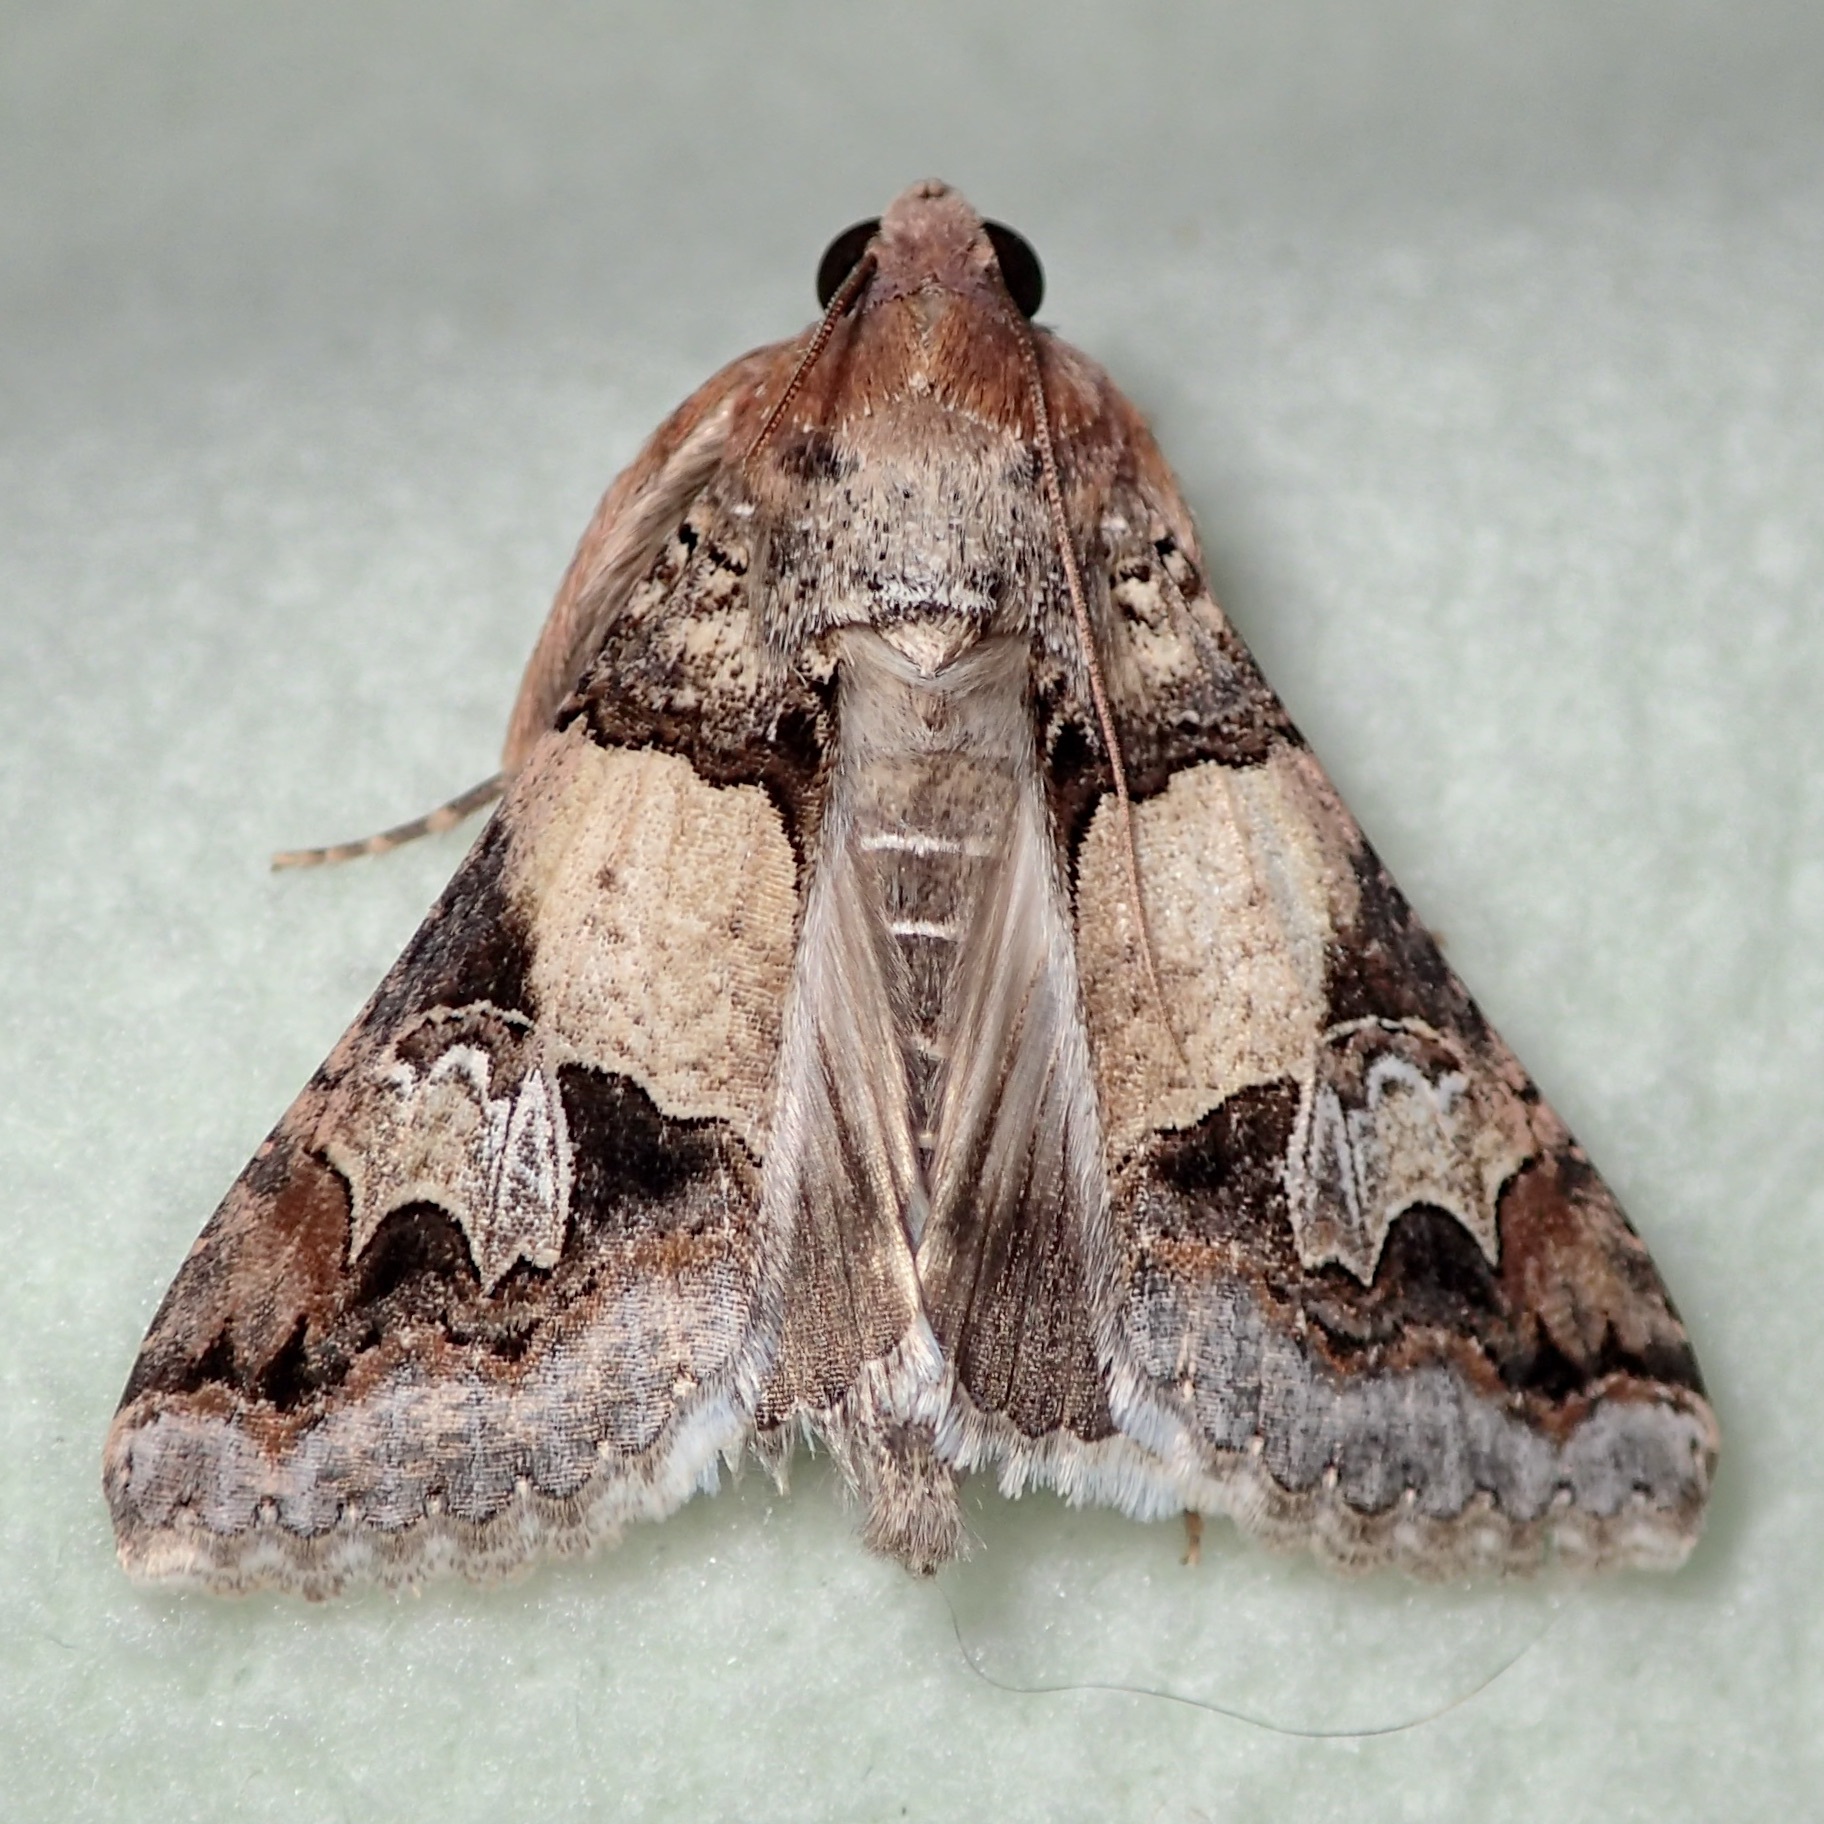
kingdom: Animalia
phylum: Arthropoda
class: Insecta
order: Lepidoptera
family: Erebidae
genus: Melipotis
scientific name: Melipotis novanda
